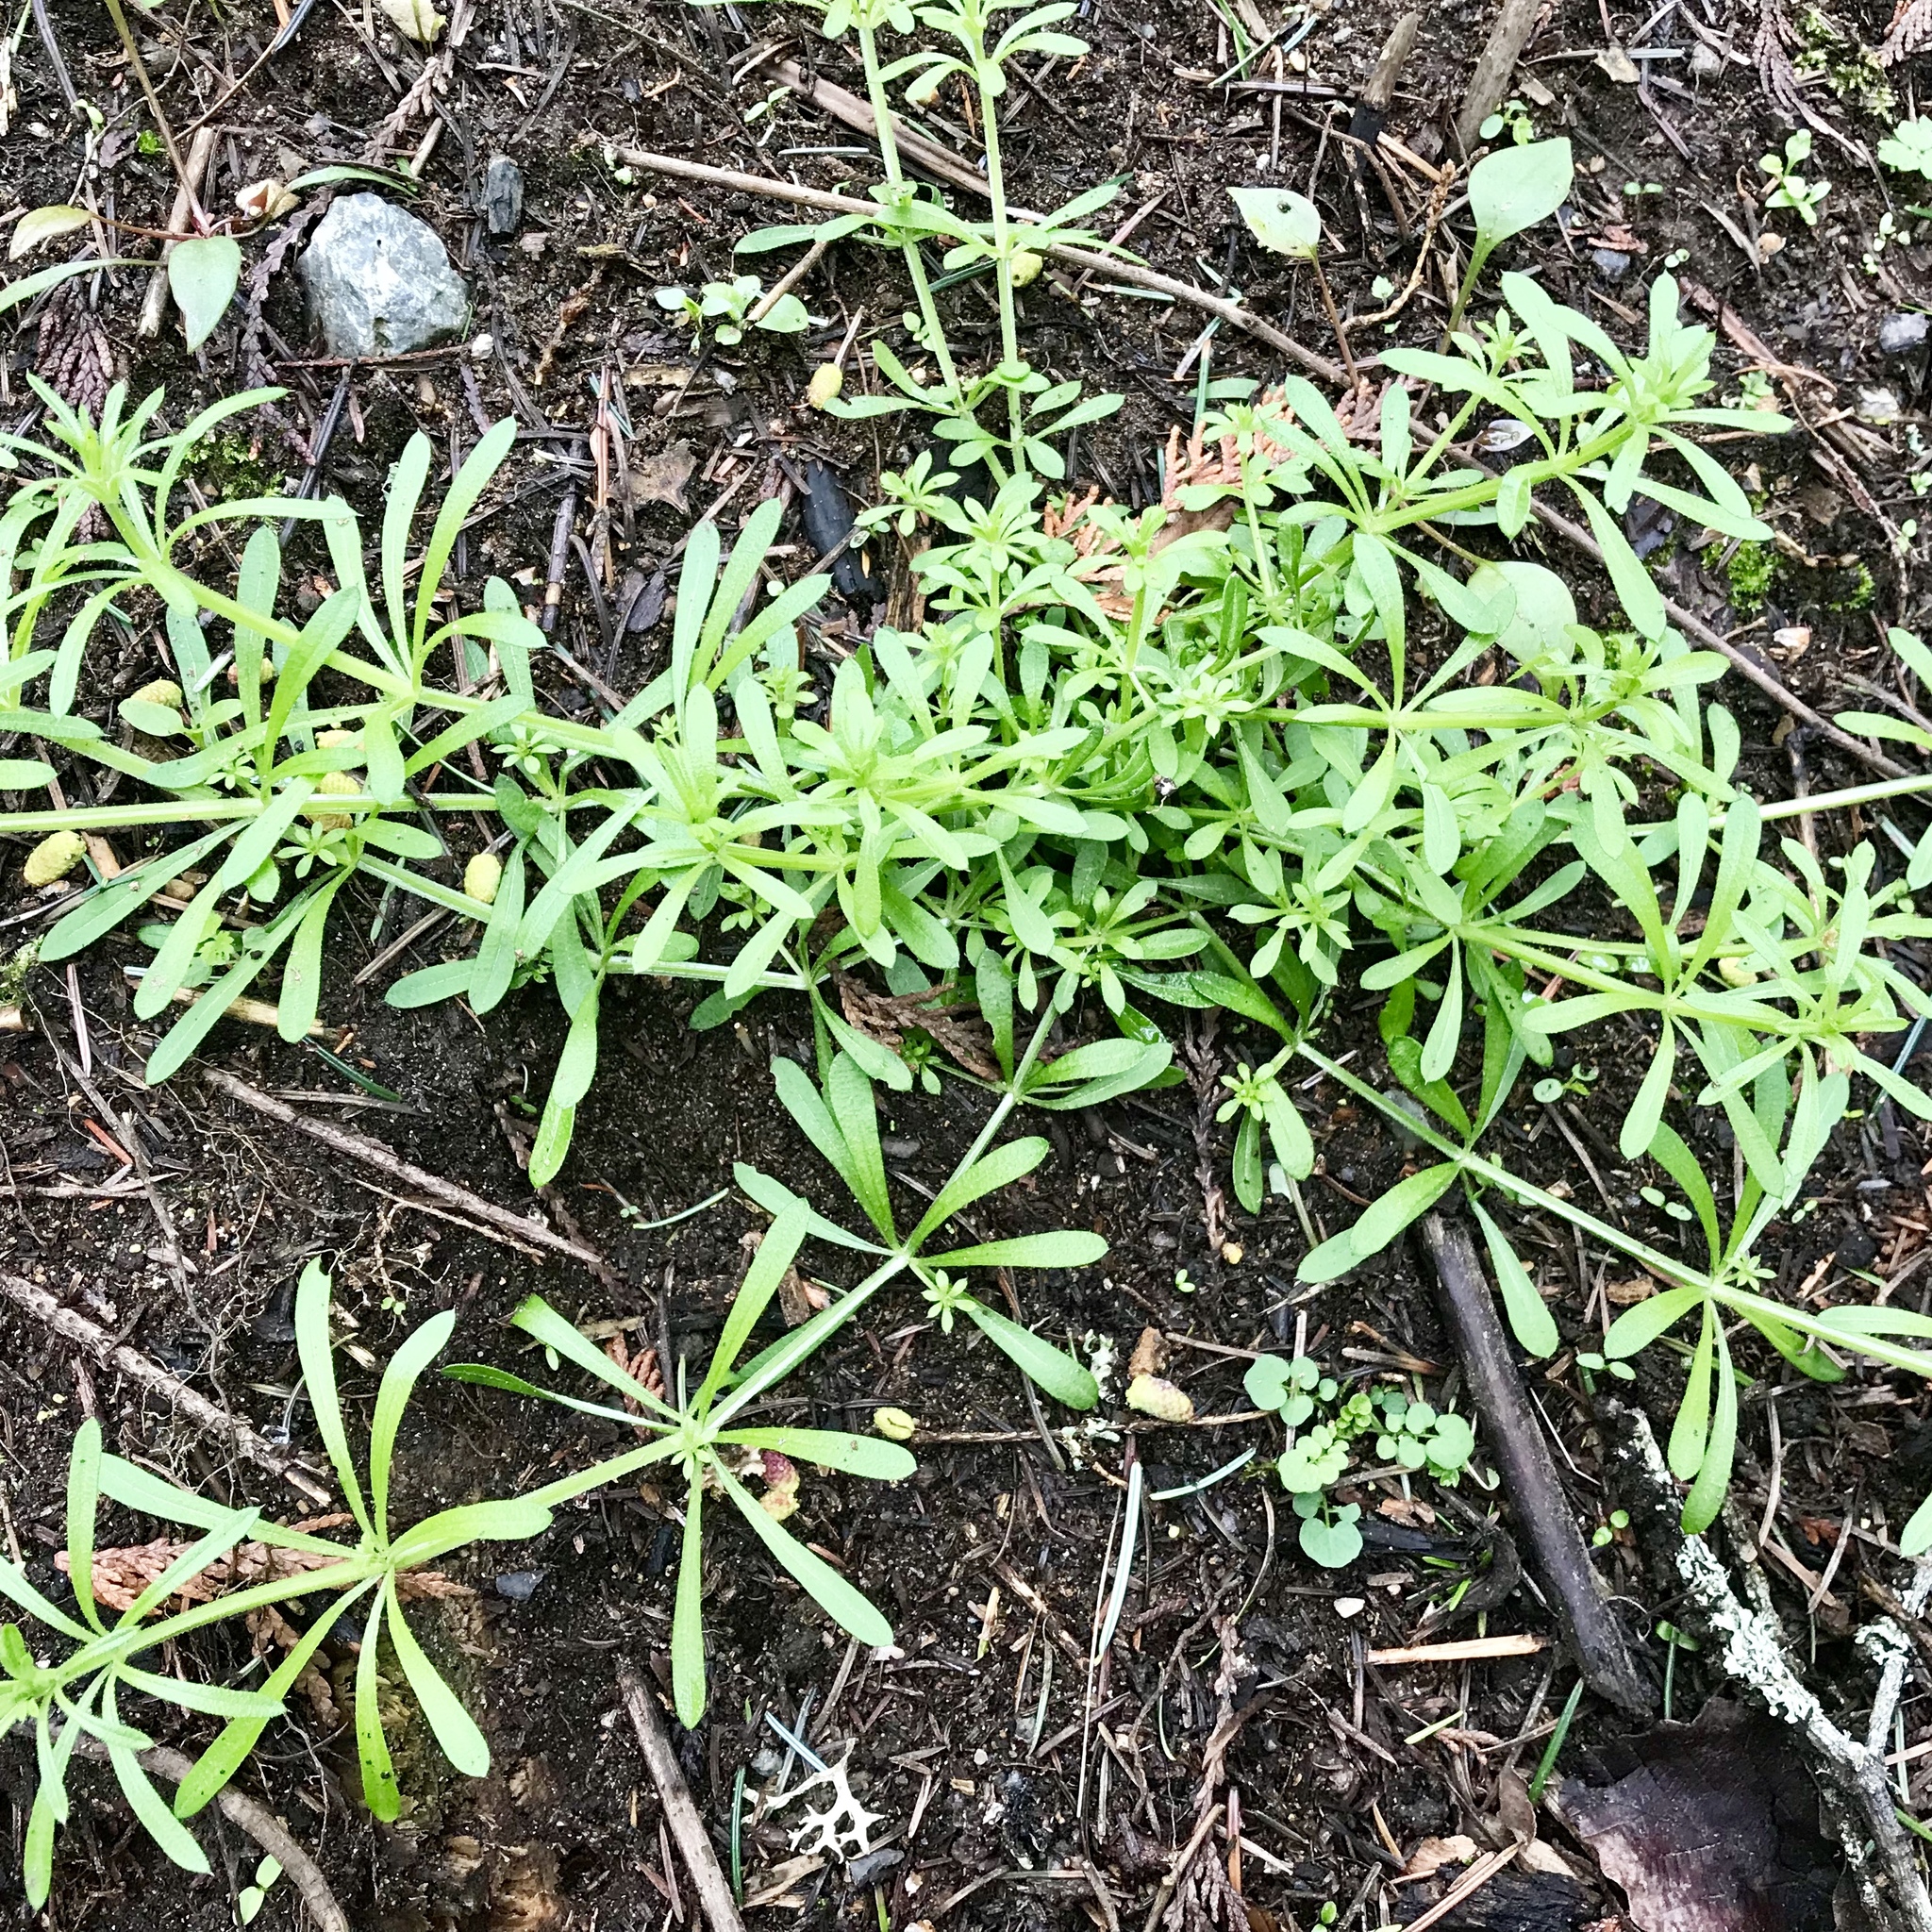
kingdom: Plantae
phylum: Tracheophyta
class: Magnoliopsida
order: Gentianales
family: Rubiaceae
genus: Galium
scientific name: Galium aparine
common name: Cleavers
